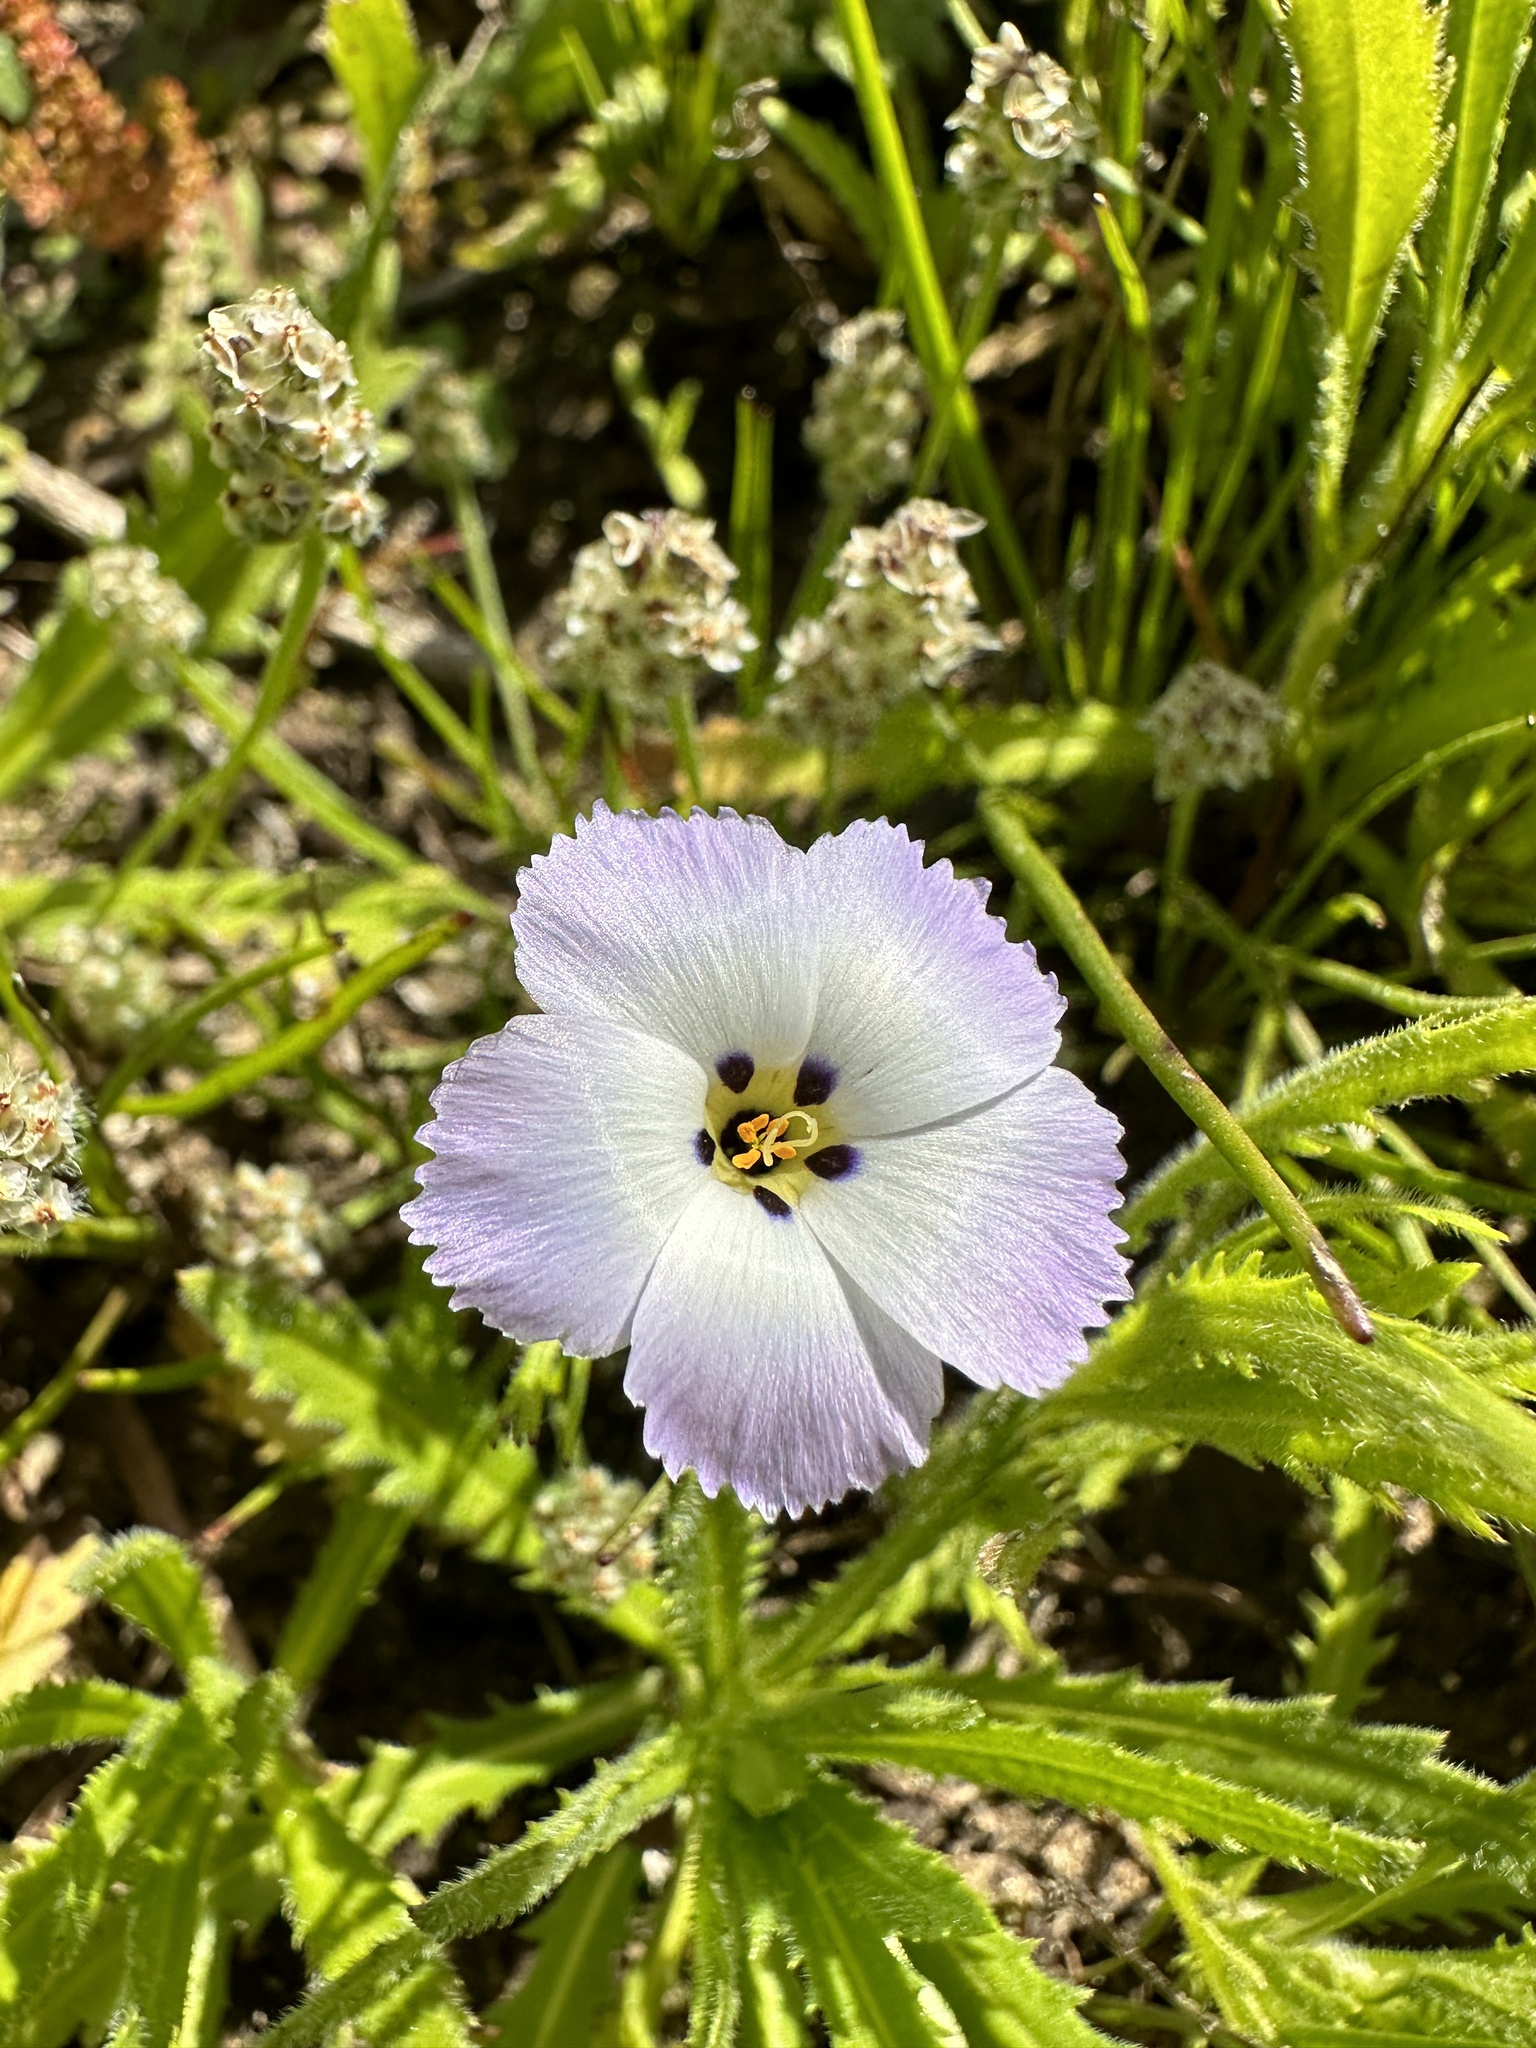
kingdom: Plantae
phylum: Tracheophyta
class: Magnoliopsida
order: Ericales
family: Polemoniaceae
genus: Linanthus
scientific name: Linanthus dianthiflorus
